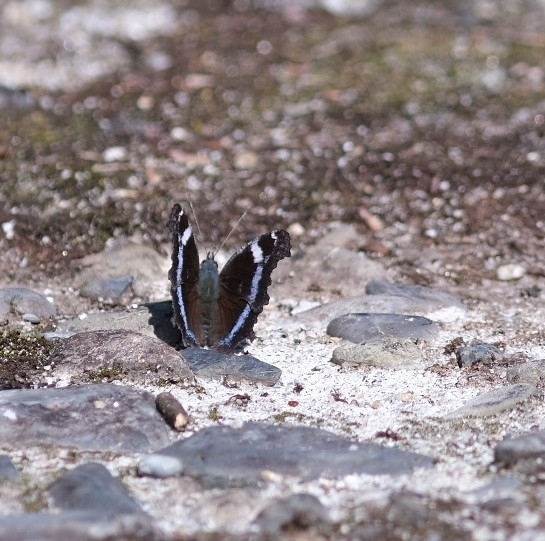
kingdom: Animalia
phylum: Arthropoda
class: Insecta
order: Lepidoptera
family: Nymphalidae
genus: Vanessa
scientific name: Vanessa Kaniska canace
